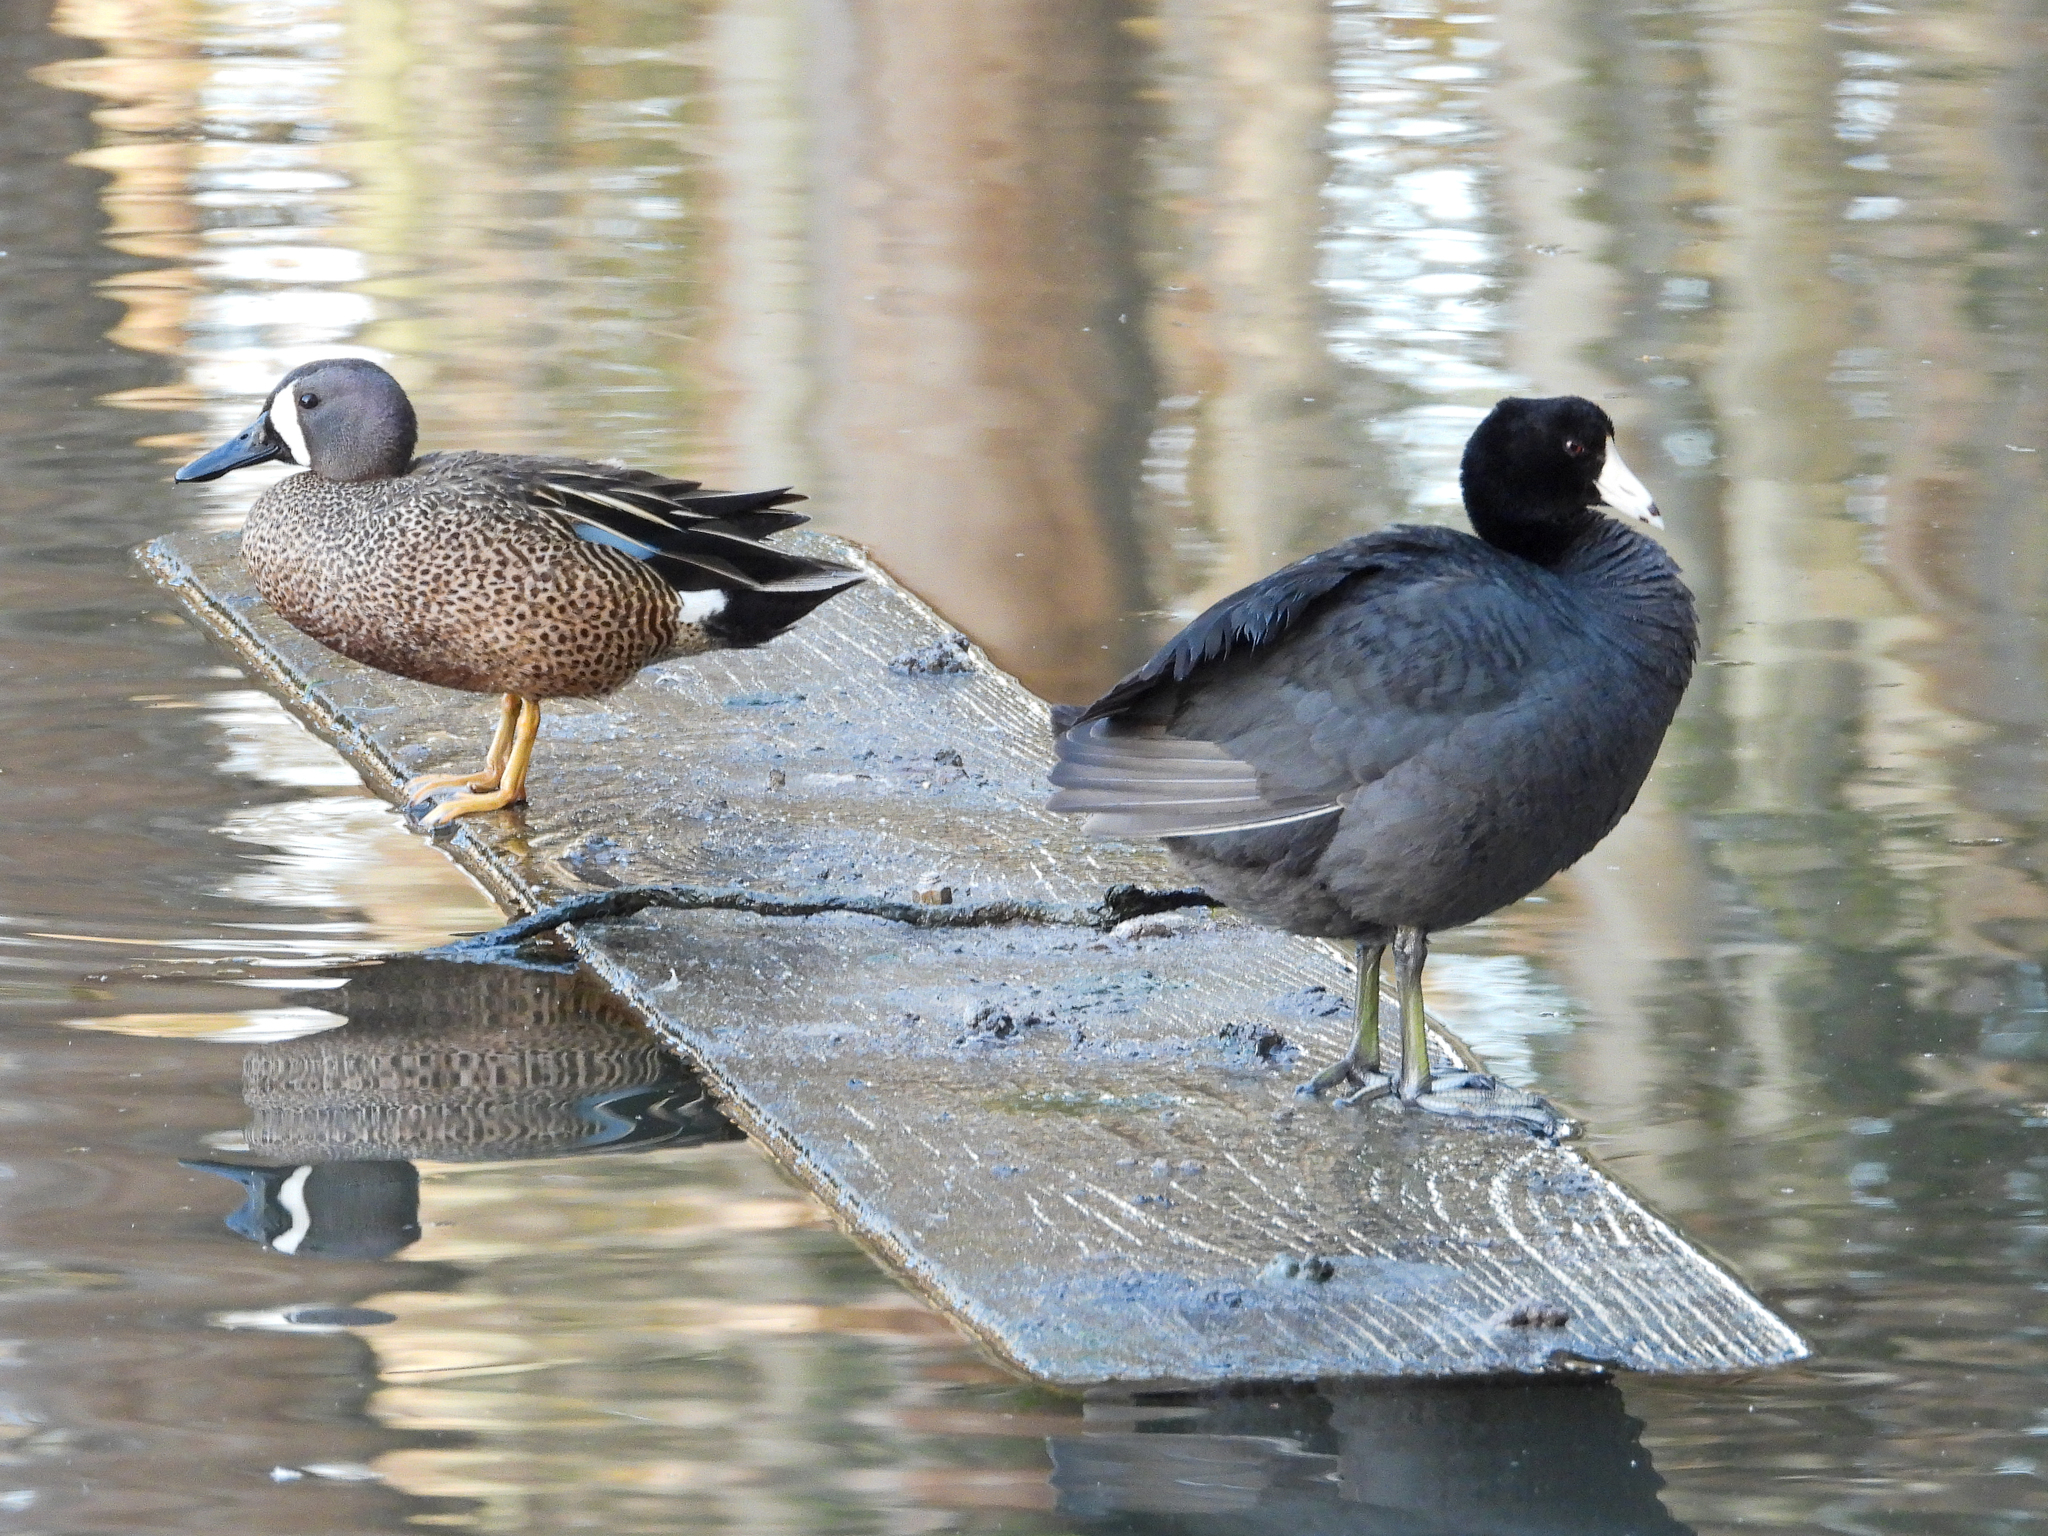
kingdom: Animalia
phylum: Chordata
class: Aves
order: Anseriformes
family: Anatidae
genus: Spatula
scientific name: Spatula discors
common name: Blue-winged teal
